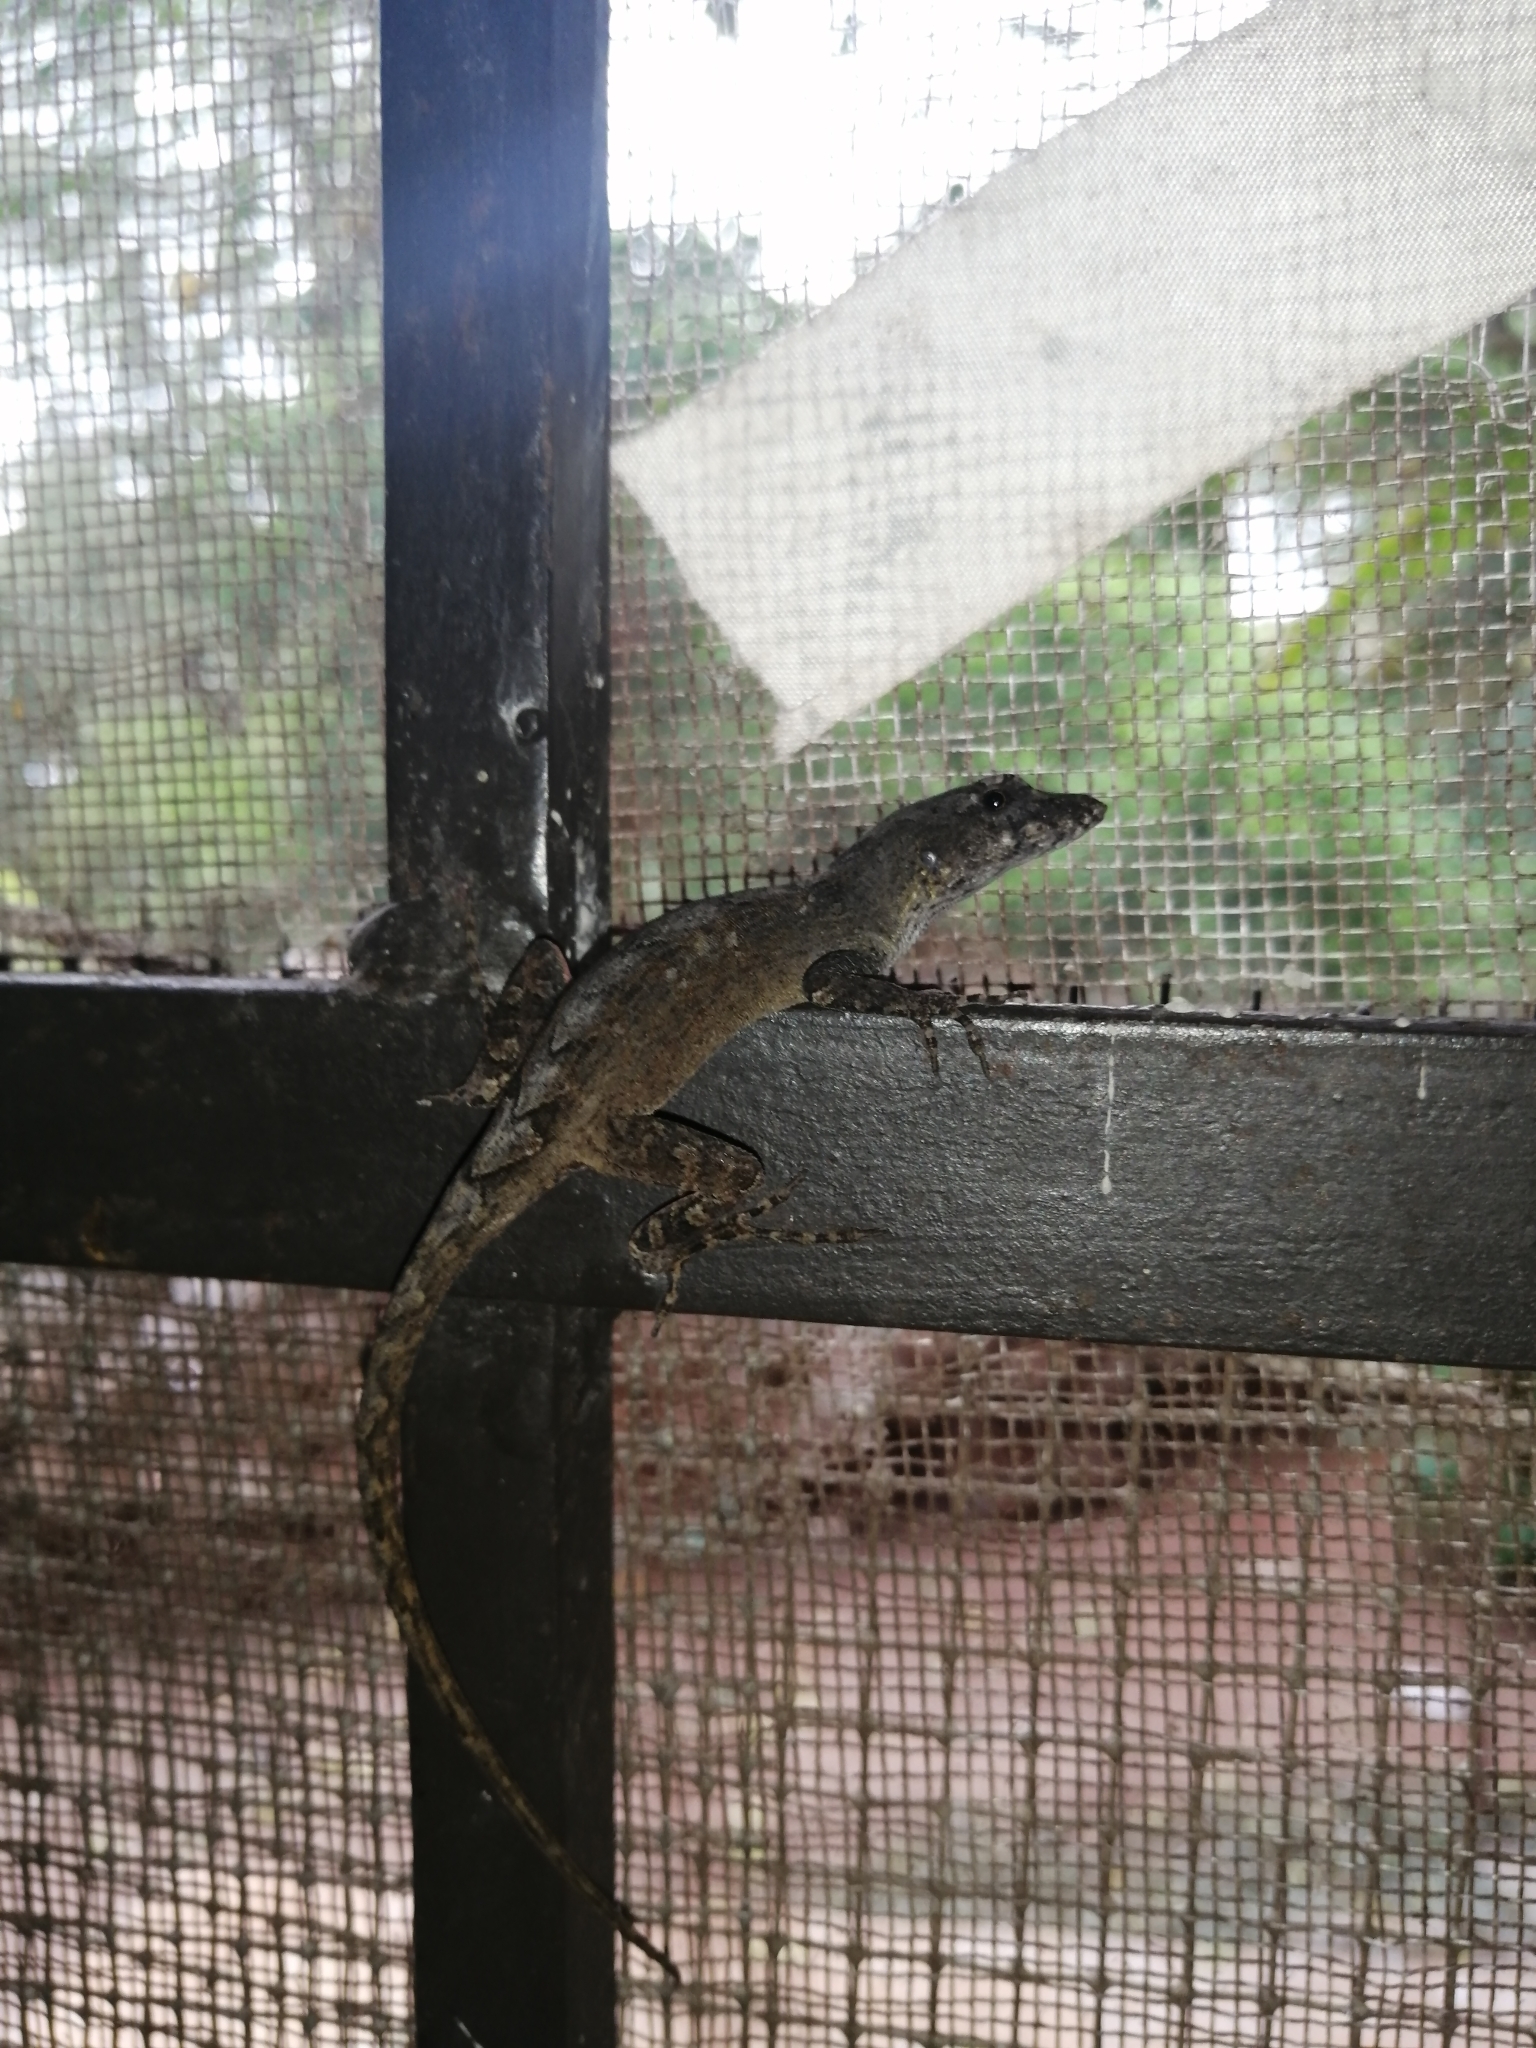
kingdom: Animalia
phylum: Chordata
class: Squamata
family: Dactyloidae
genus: Anolis
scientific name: Anolis sagrei
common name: Brown anole
